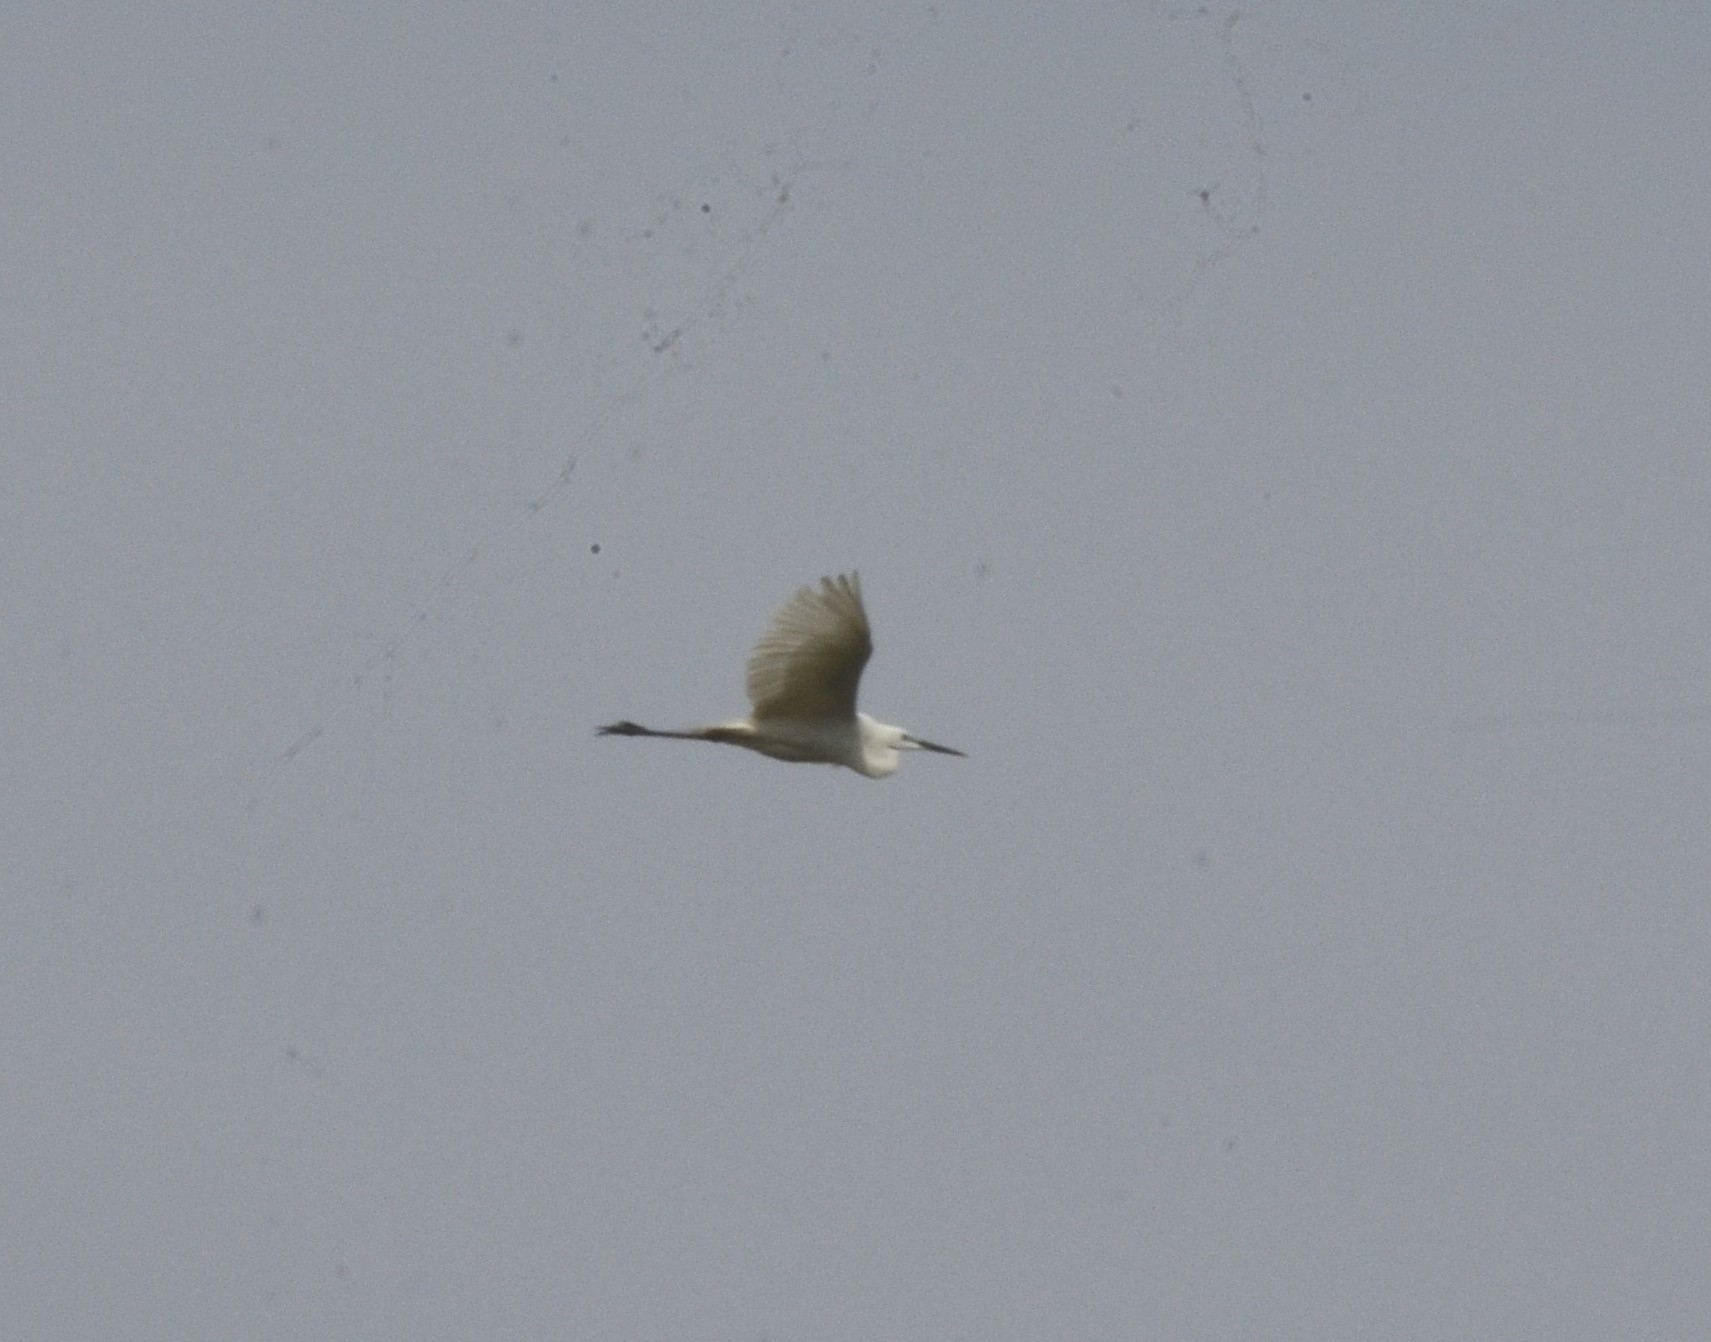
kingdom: Animalia
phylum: Chordata
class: Aves
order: Pelecaniformes
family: Ardeidae
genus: Egretta
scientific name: Egretta garzetta
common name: Little egret
